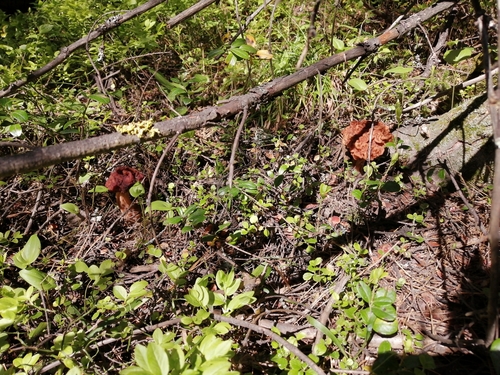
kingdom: Fungi
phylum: Ascomycota
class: Pezizomycetes
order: Pezizales
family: Discinaceae
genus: Gyromitra
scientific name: Gyromitra
